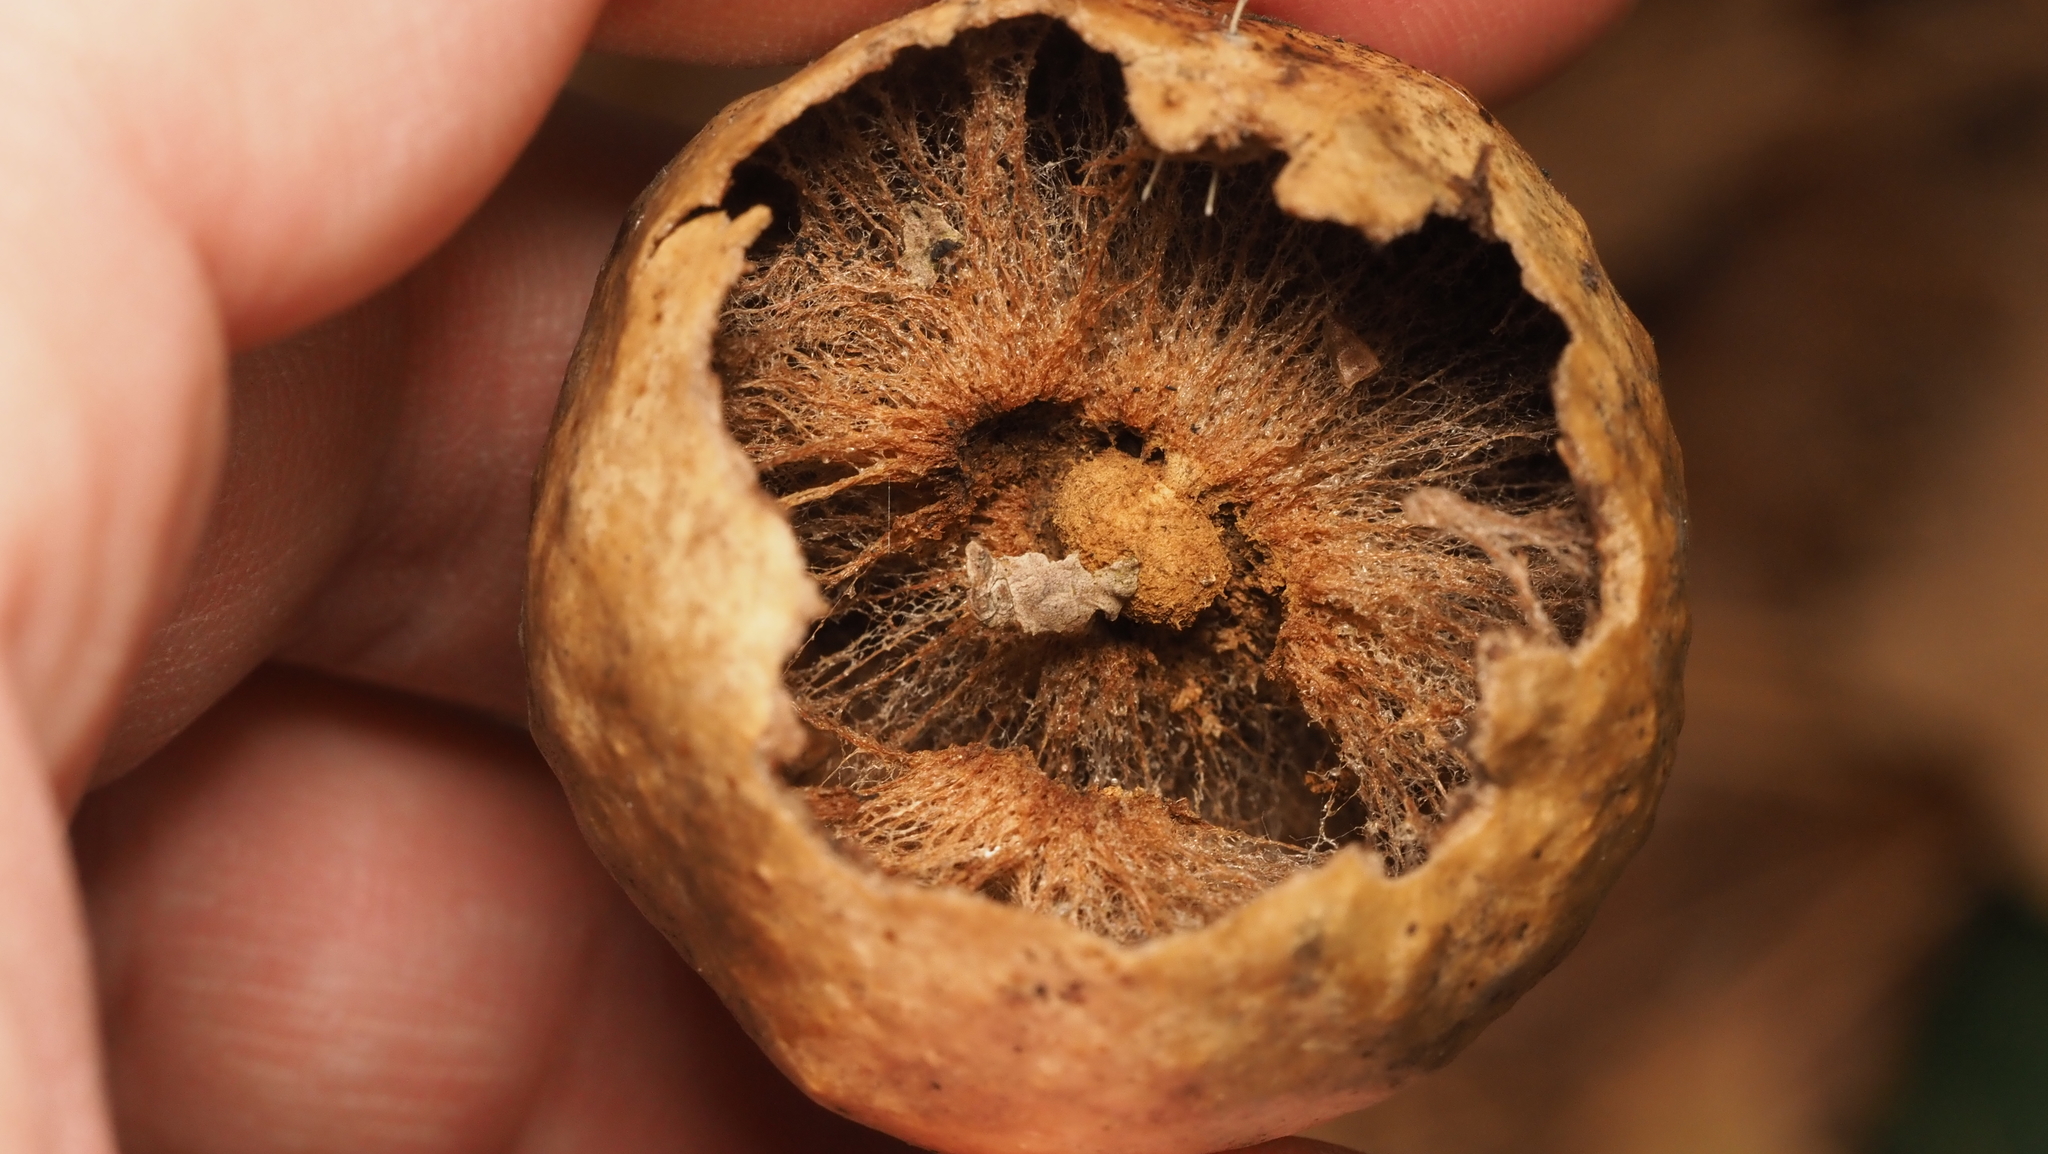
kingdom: Animalia
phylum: Arthropoda
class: Insecta
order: Hymenoptera
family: Cynipidae
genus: Amphibolips
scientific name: Amphibolips
